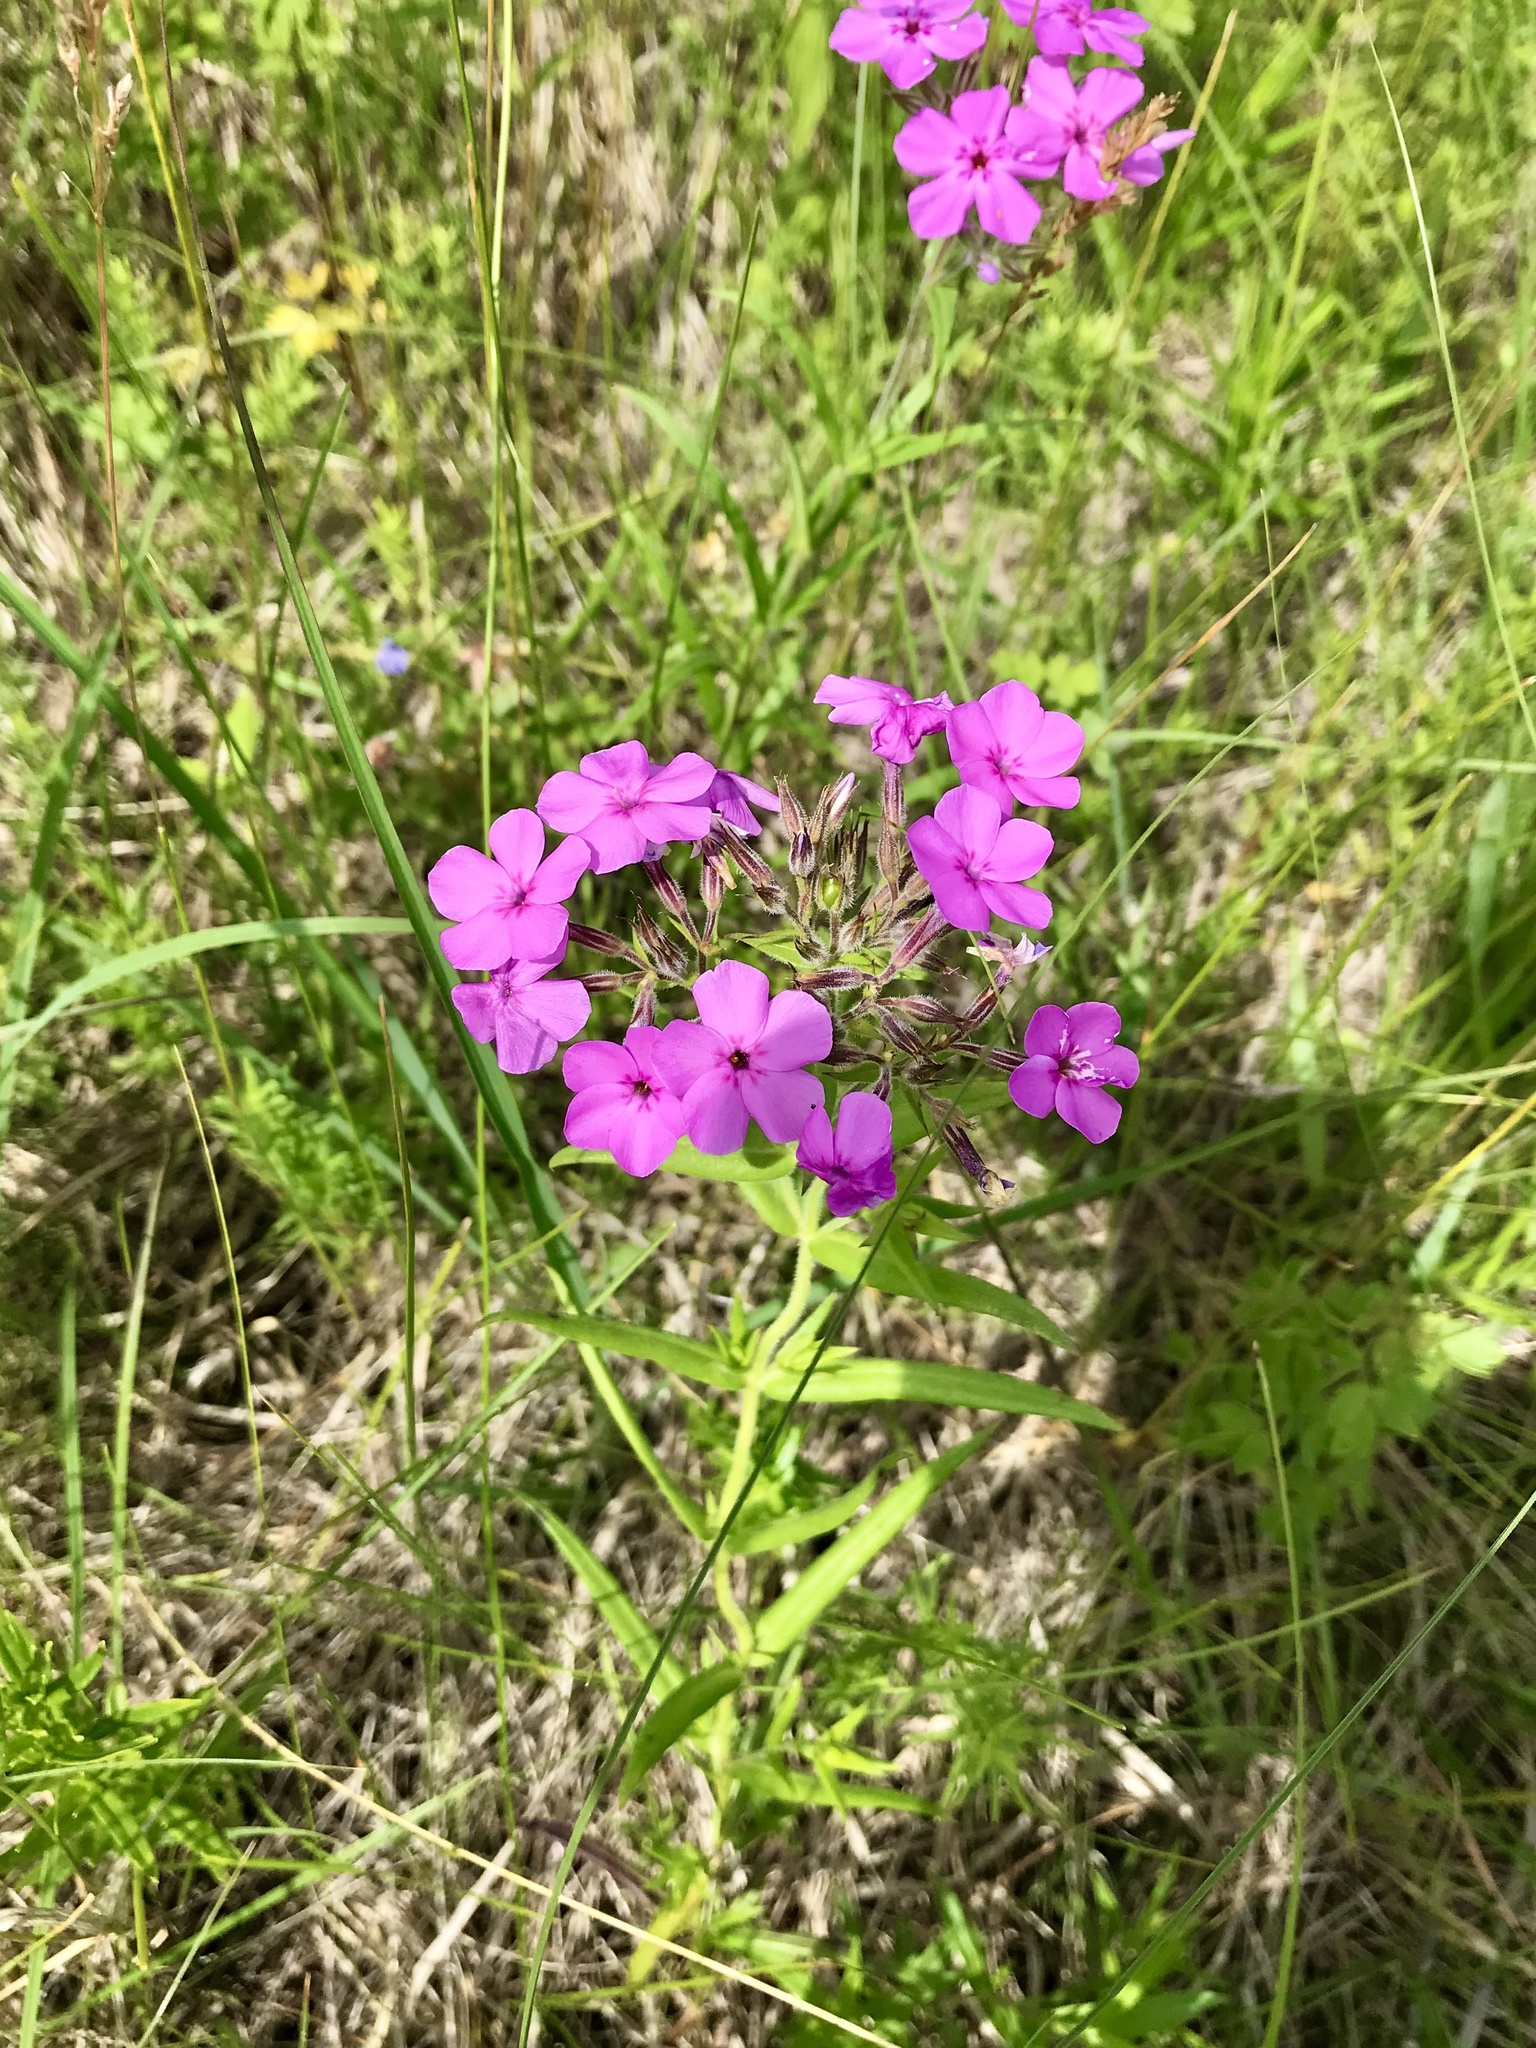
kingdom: Plantae
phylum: Tracheophyta
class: Magnoliopsida
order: Ericales
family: Polemoniaceae
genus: Phlox
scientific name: Phlox pilosa
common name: Prairie phlox
